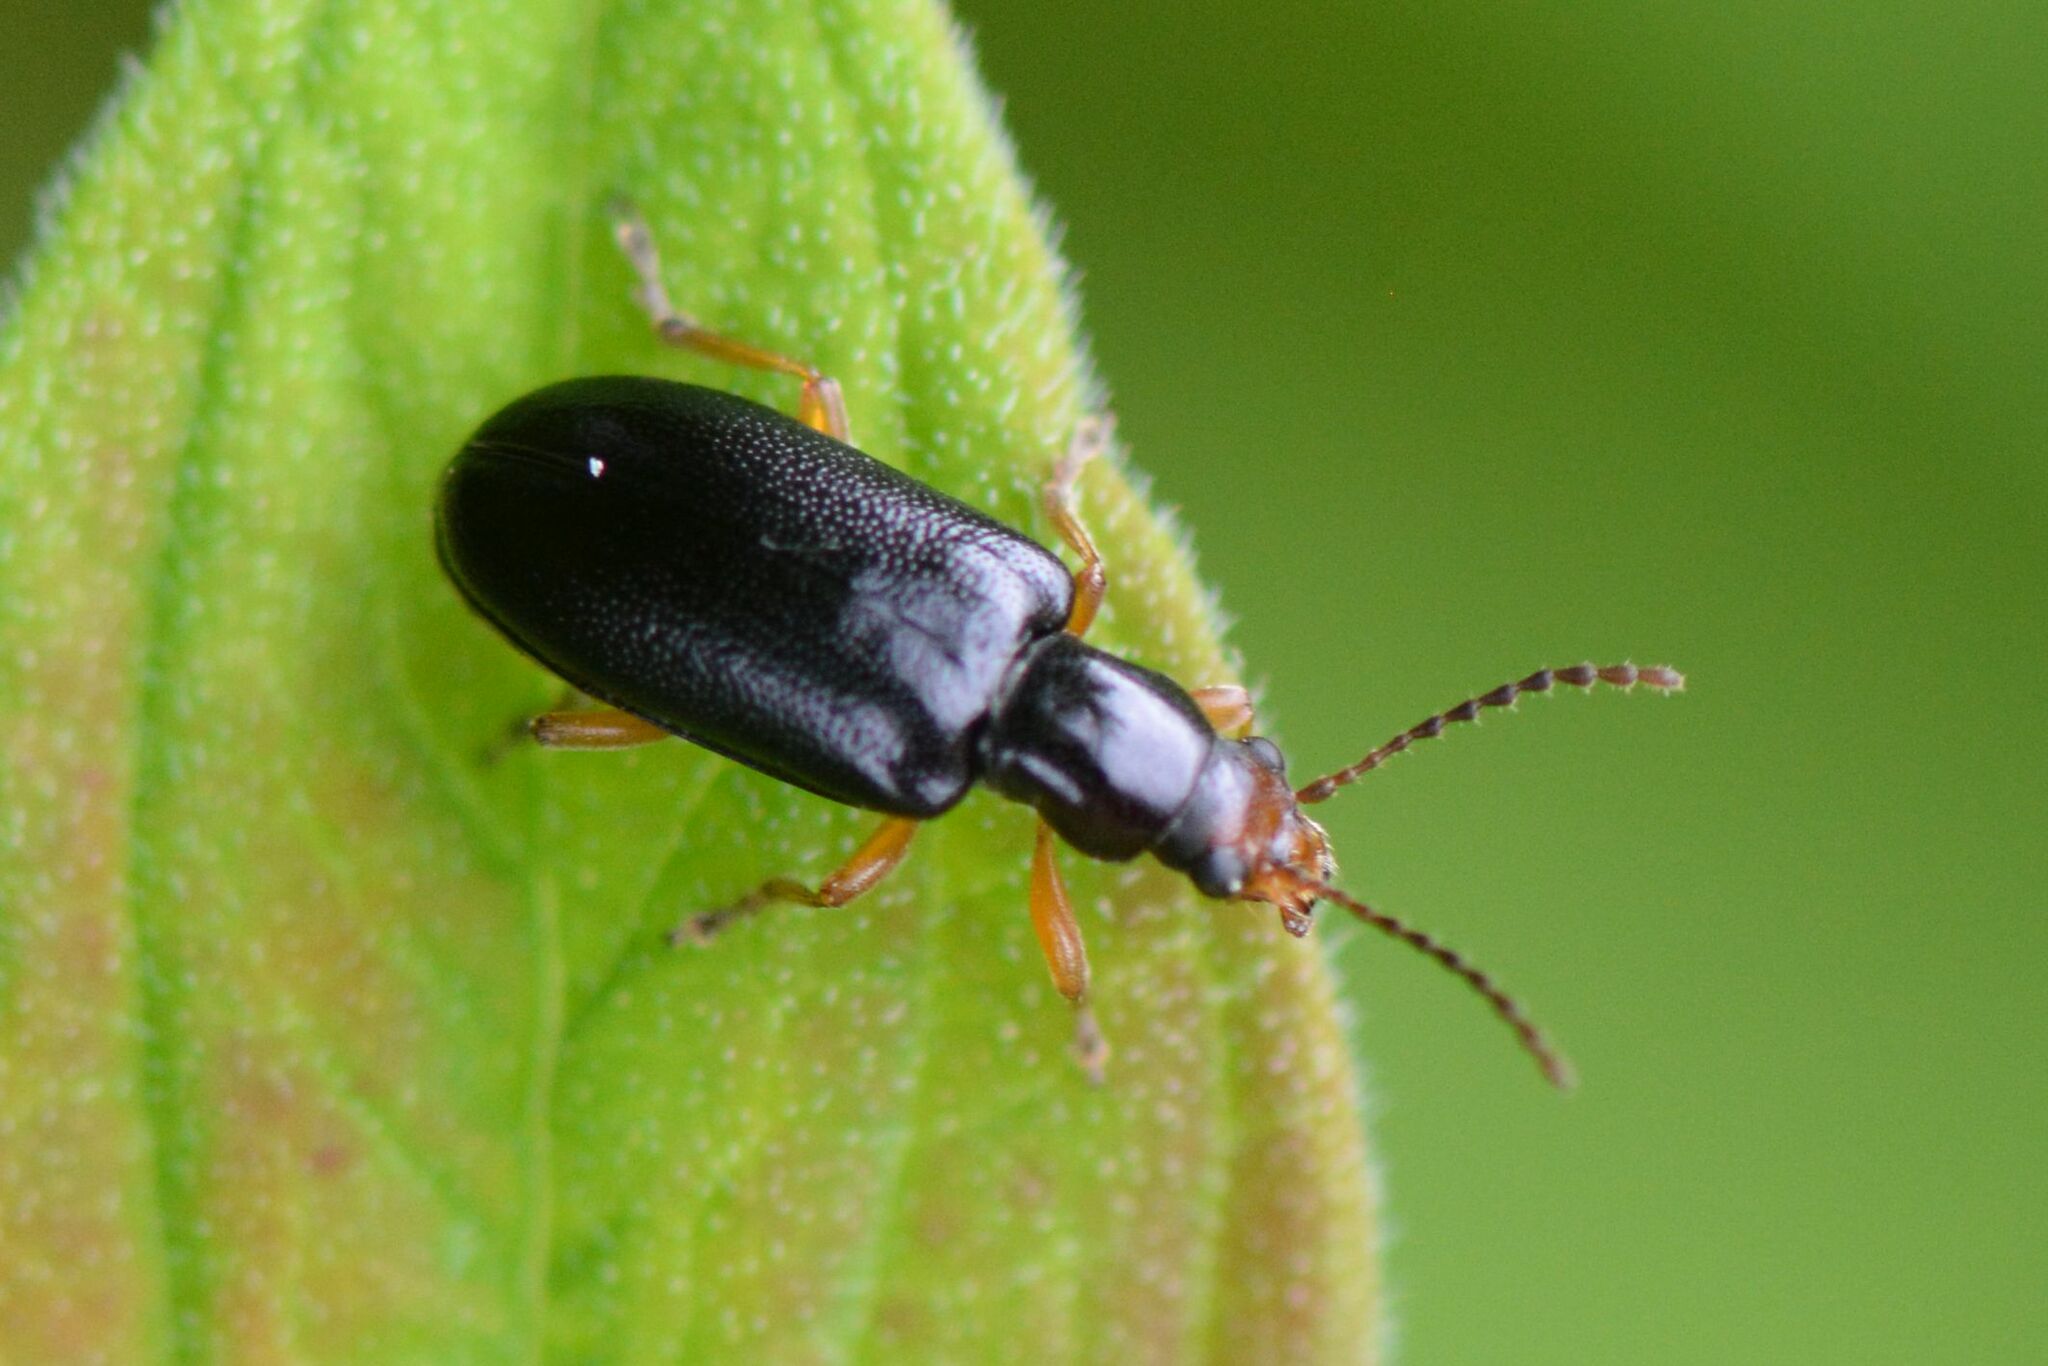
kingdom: Animalia
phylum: Arthropoda
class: Insecta
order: Coleoptera
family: Orsodacnidae
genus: Orsodacne
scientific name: Orsodacne cerasi
